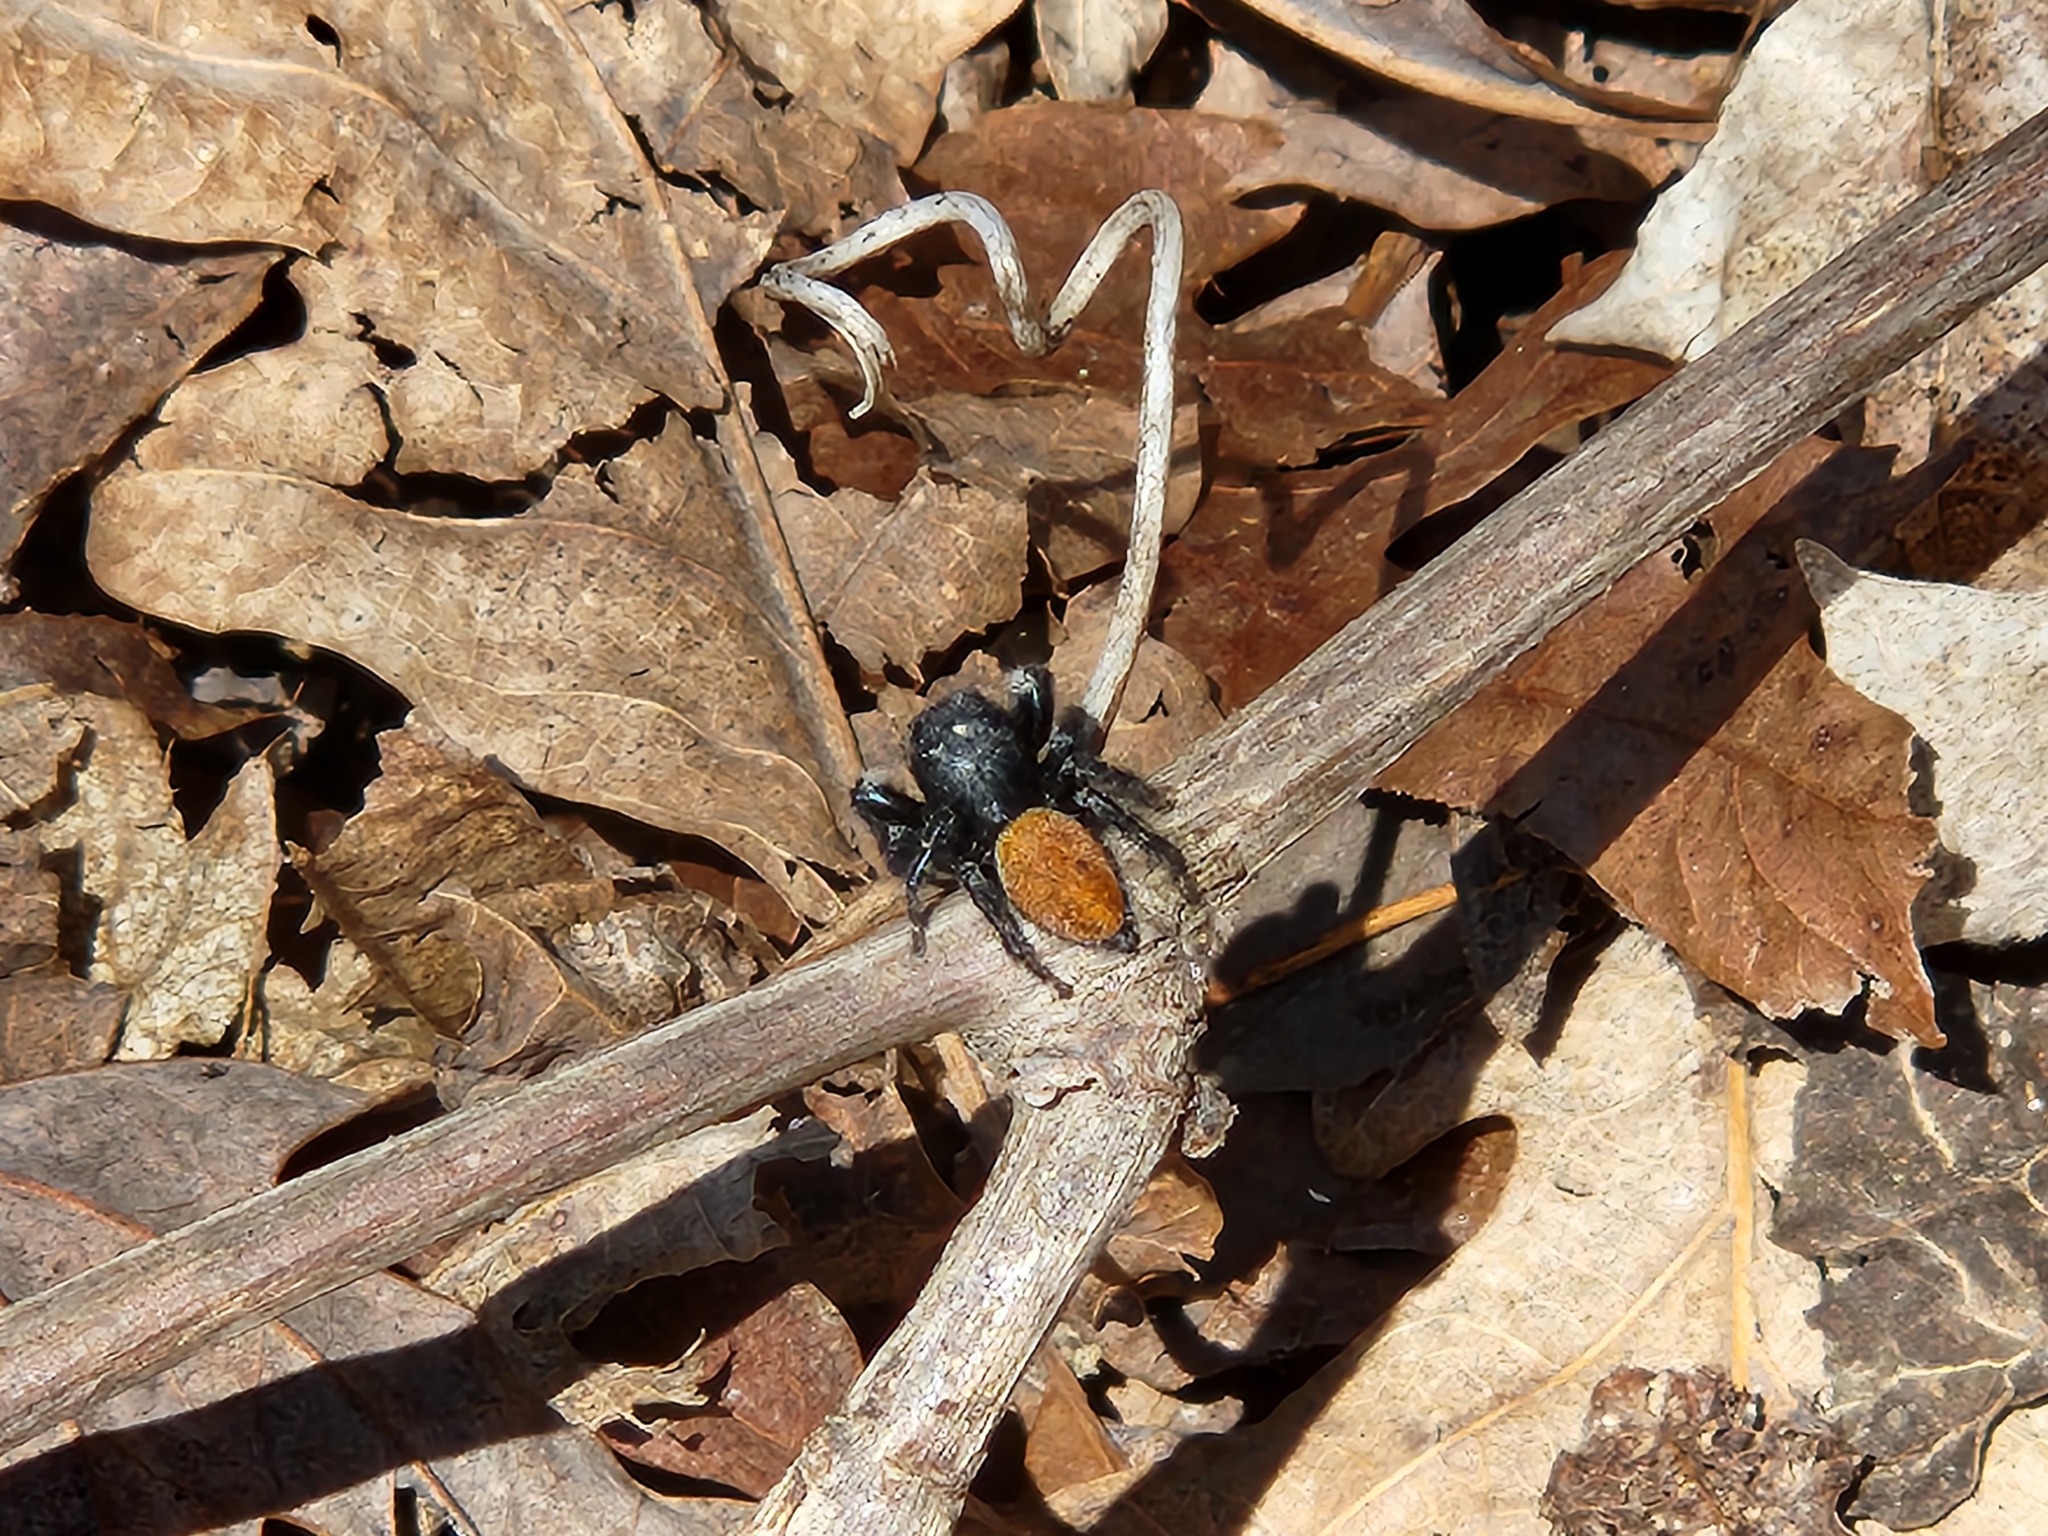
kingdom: Animalia
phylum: Arthropoda
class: Arachnida
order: Araneae
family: Salticidae
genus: Phidippus
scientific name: Phidippus princeps
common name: Grayish jumping spider
